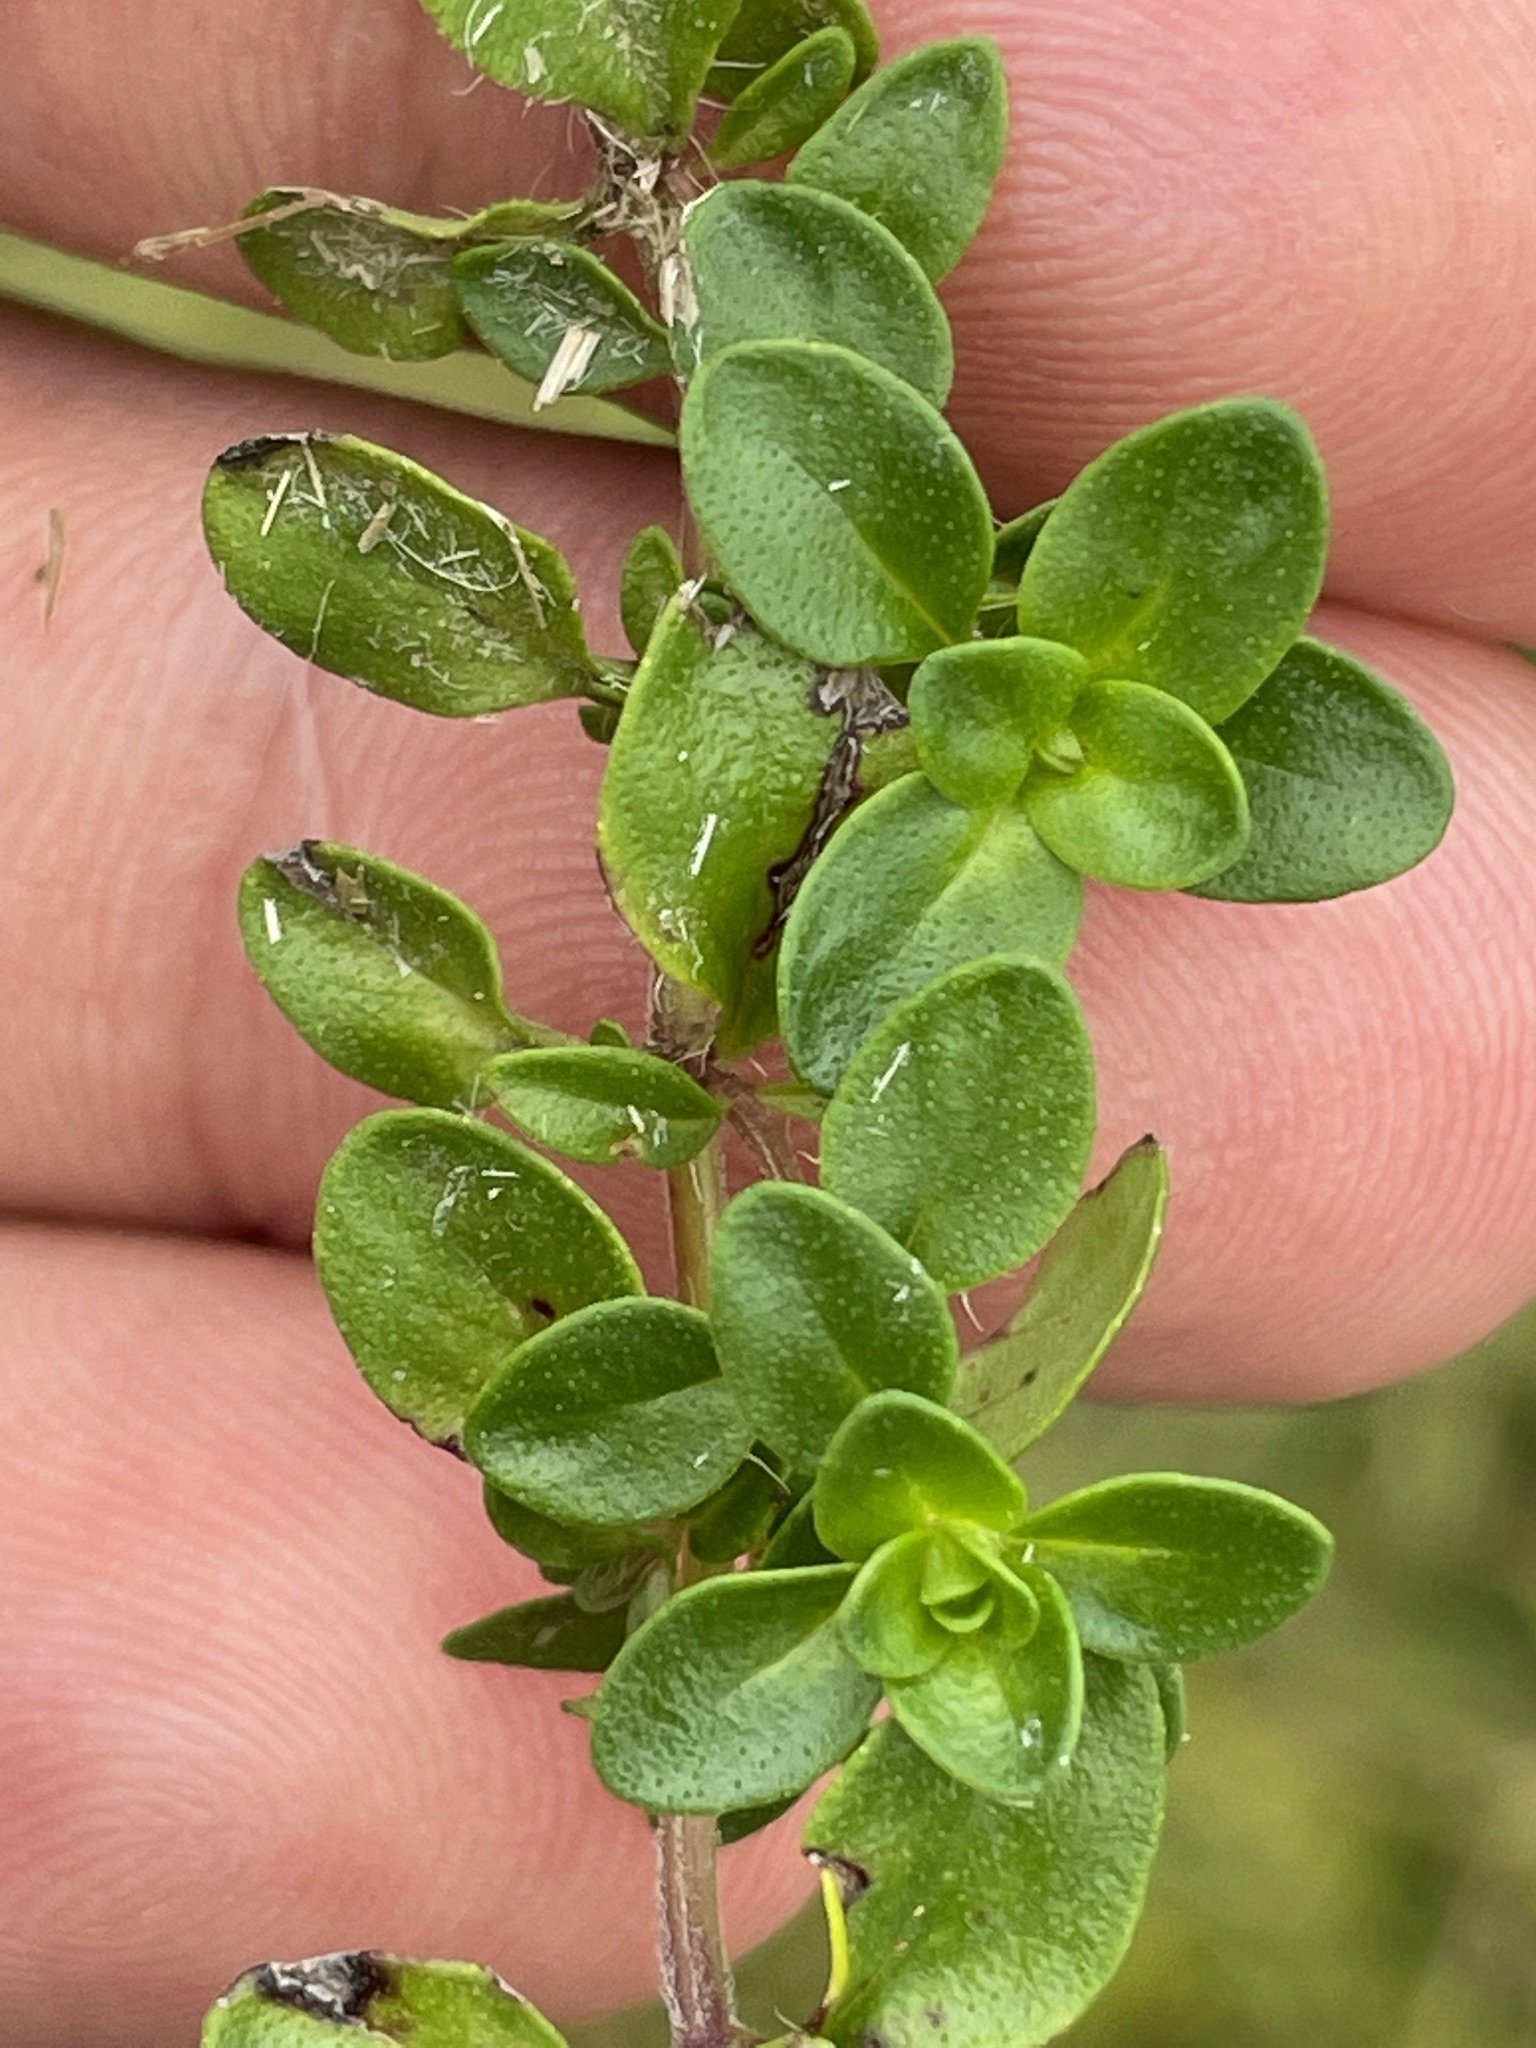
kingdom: Plantae
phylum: Tracheophyta
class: Magnoliopsida
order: Lamiales
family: Lamiaceae
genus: Thymus
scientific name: Thymus pulegioides
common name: Large thyme
